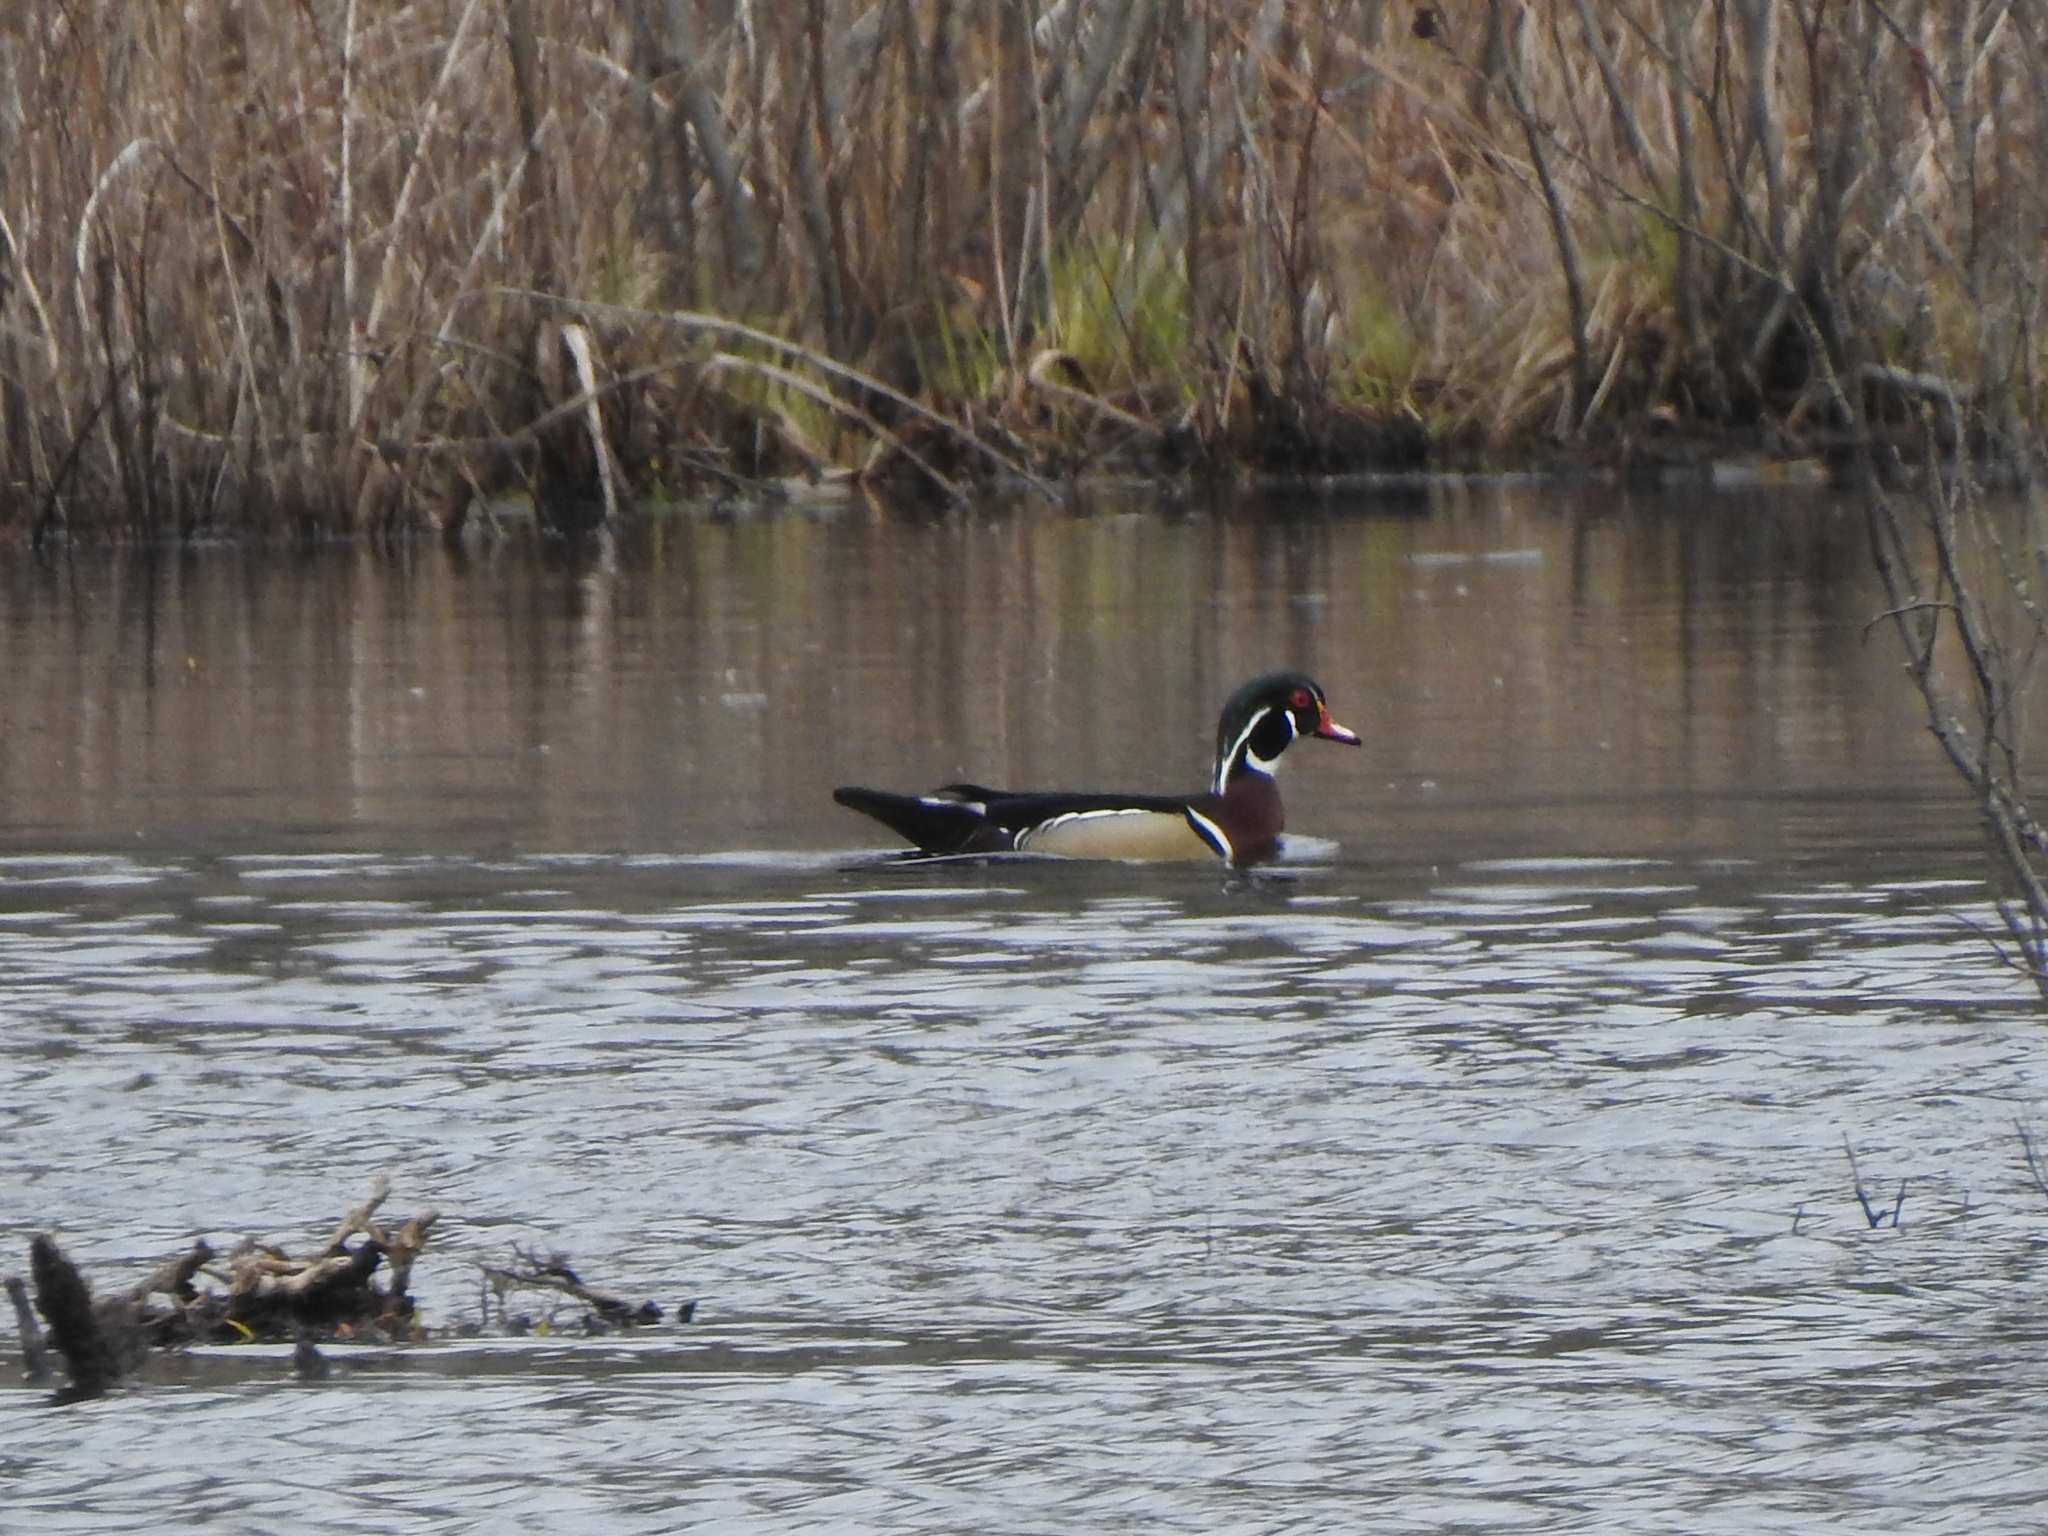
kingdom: Animalia
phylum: Chordata
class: Aves
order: Anseriformes
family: Anatidae
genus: Aix
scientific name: Aix sponsa
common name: Wood duck
